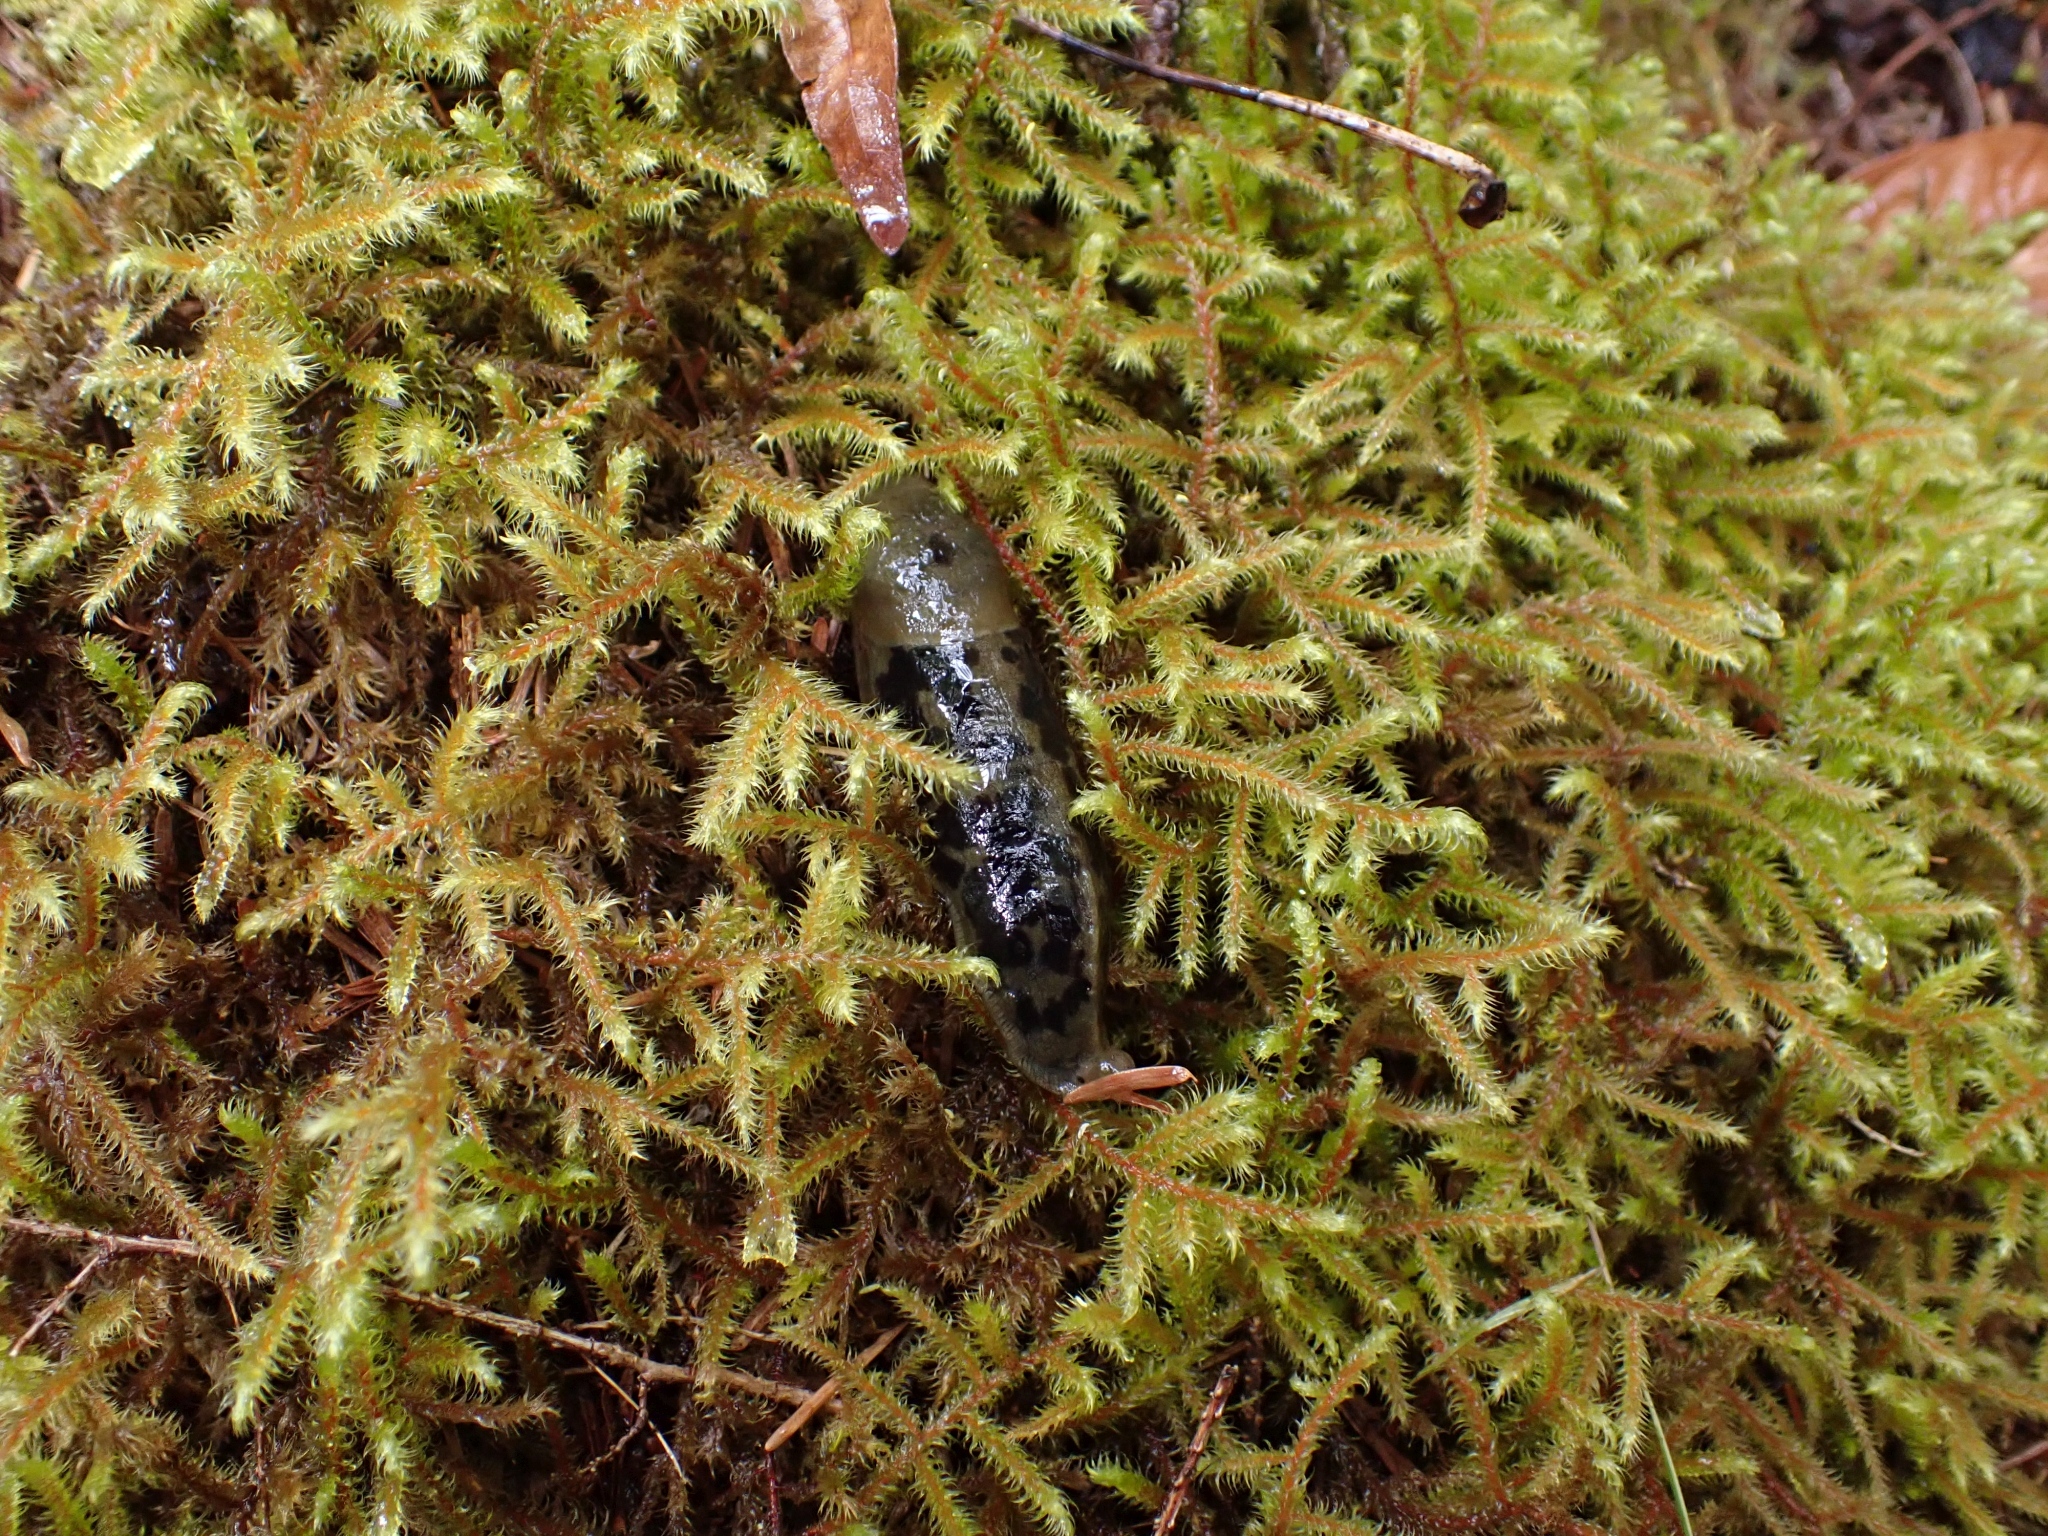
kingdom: Animalia
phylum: Mollusca
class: Gastropoda
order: Stylommatophora
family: Ariolimacidae
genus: Ariolimax
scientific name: Ariolimax columbianus
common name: Pacific banana slug
